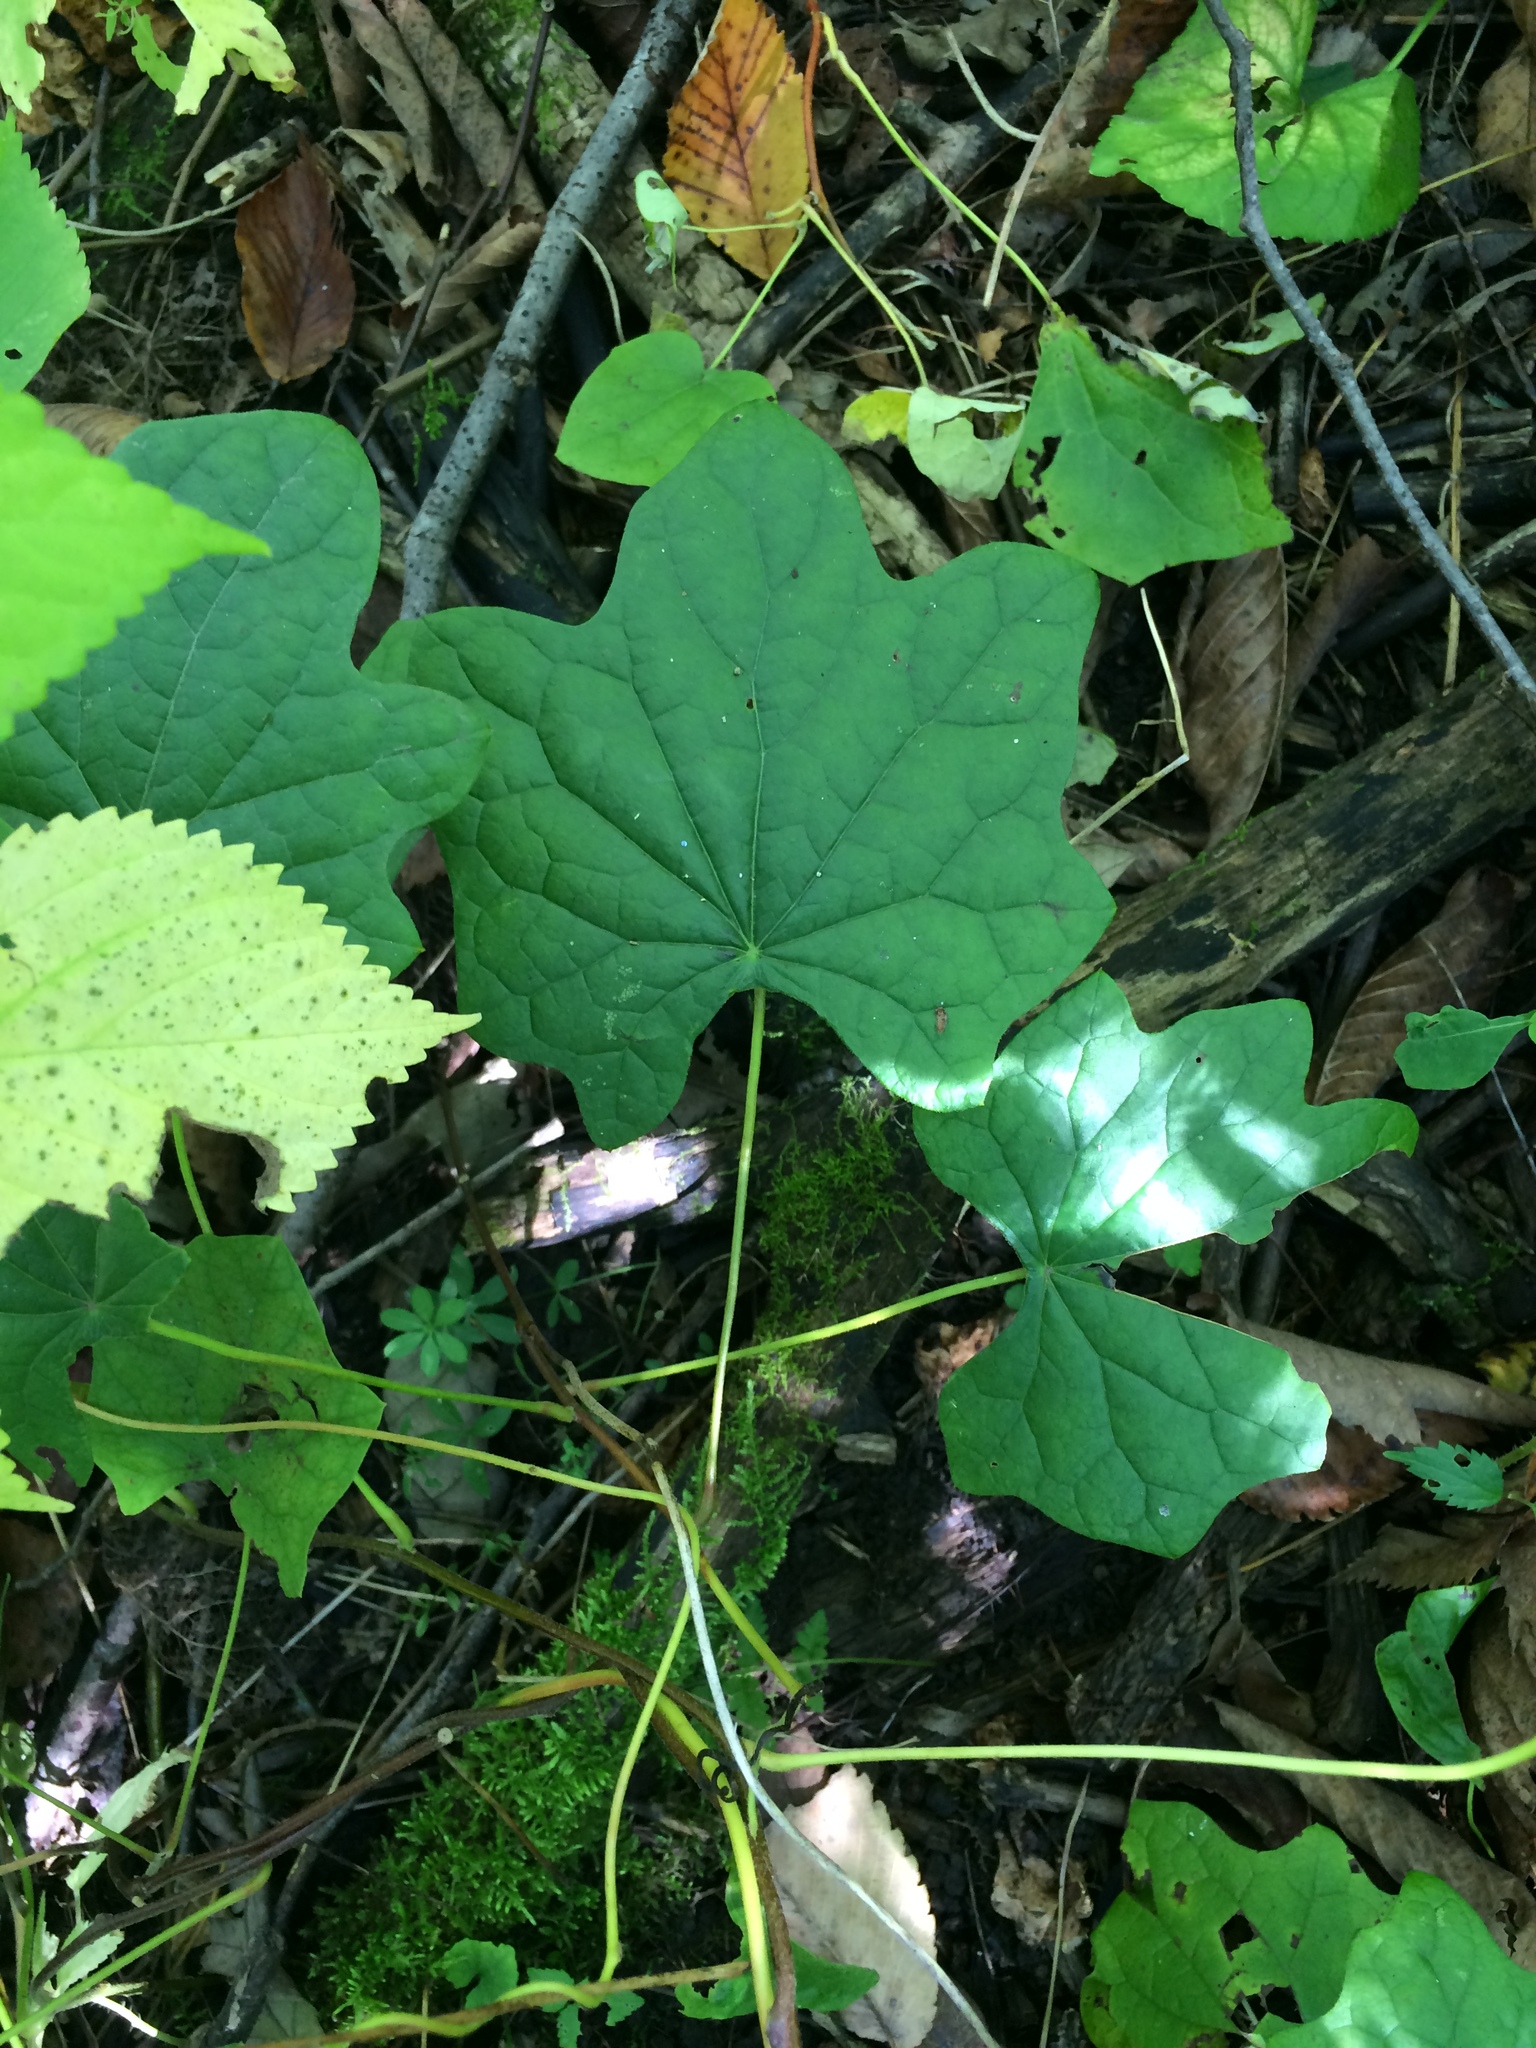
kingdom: Plantae
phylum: Tracheophyta
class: Magnoliopsida
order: Ranunculales
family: Menispermaceae
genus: Menispermum
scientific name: Menispermum canadense
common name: Moonseed
